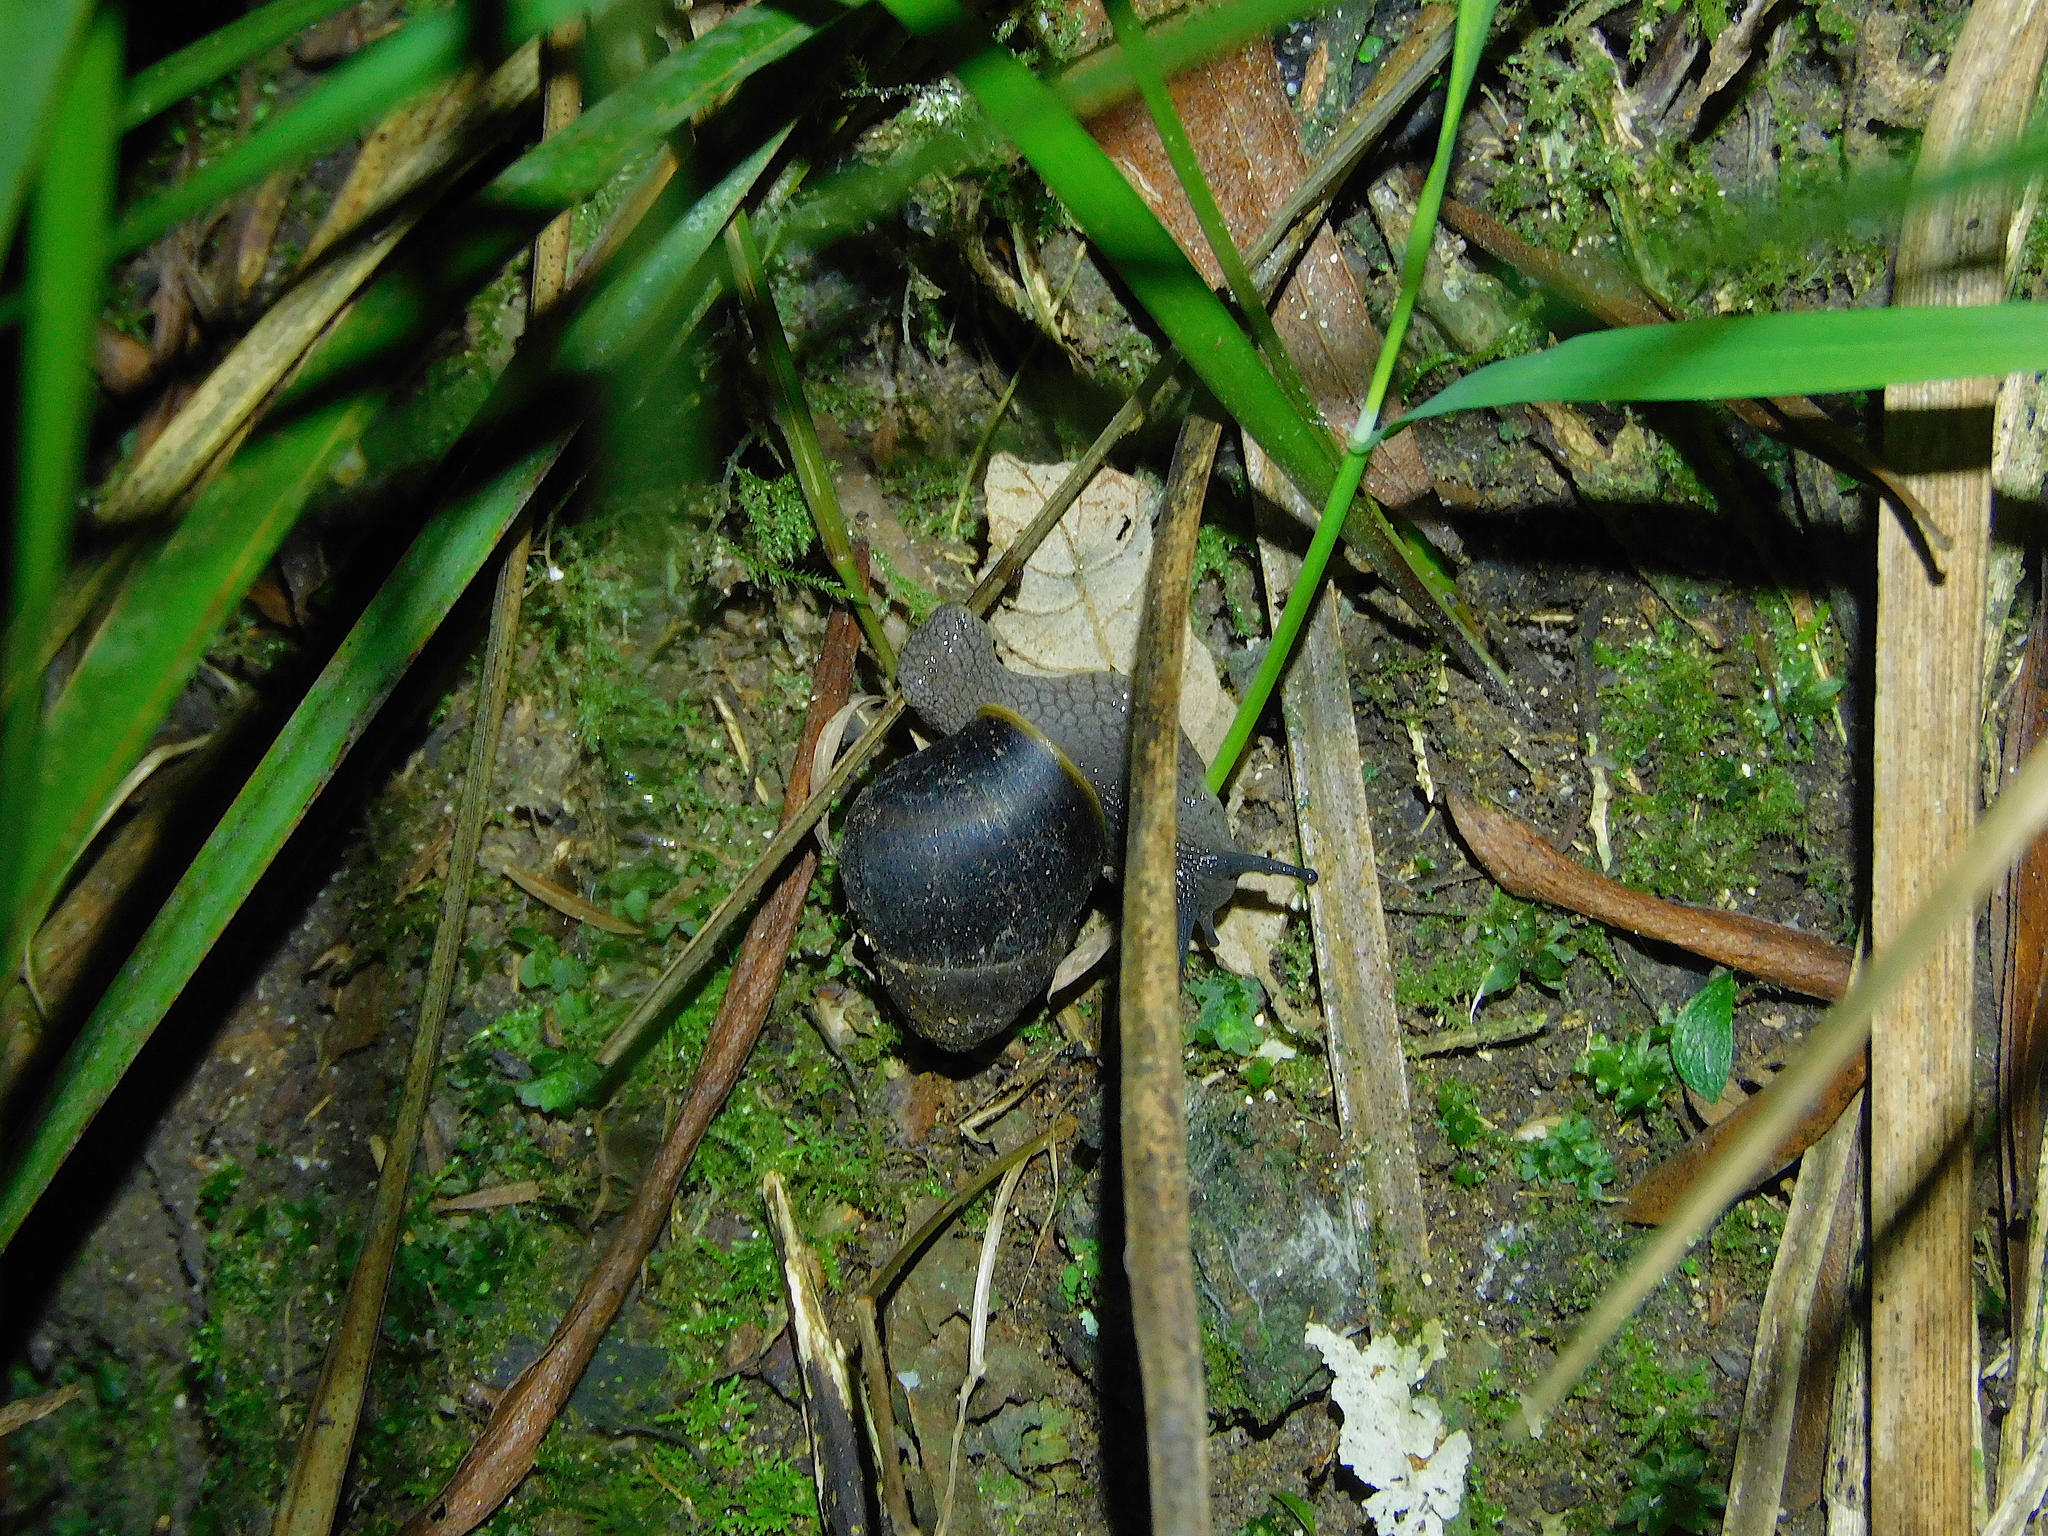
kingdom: Animalia
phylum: Mollusca
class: Gastropoda
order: Stylommatophora
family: Caryodidae
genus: Caryodes
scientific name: Caryodes dufresnii
